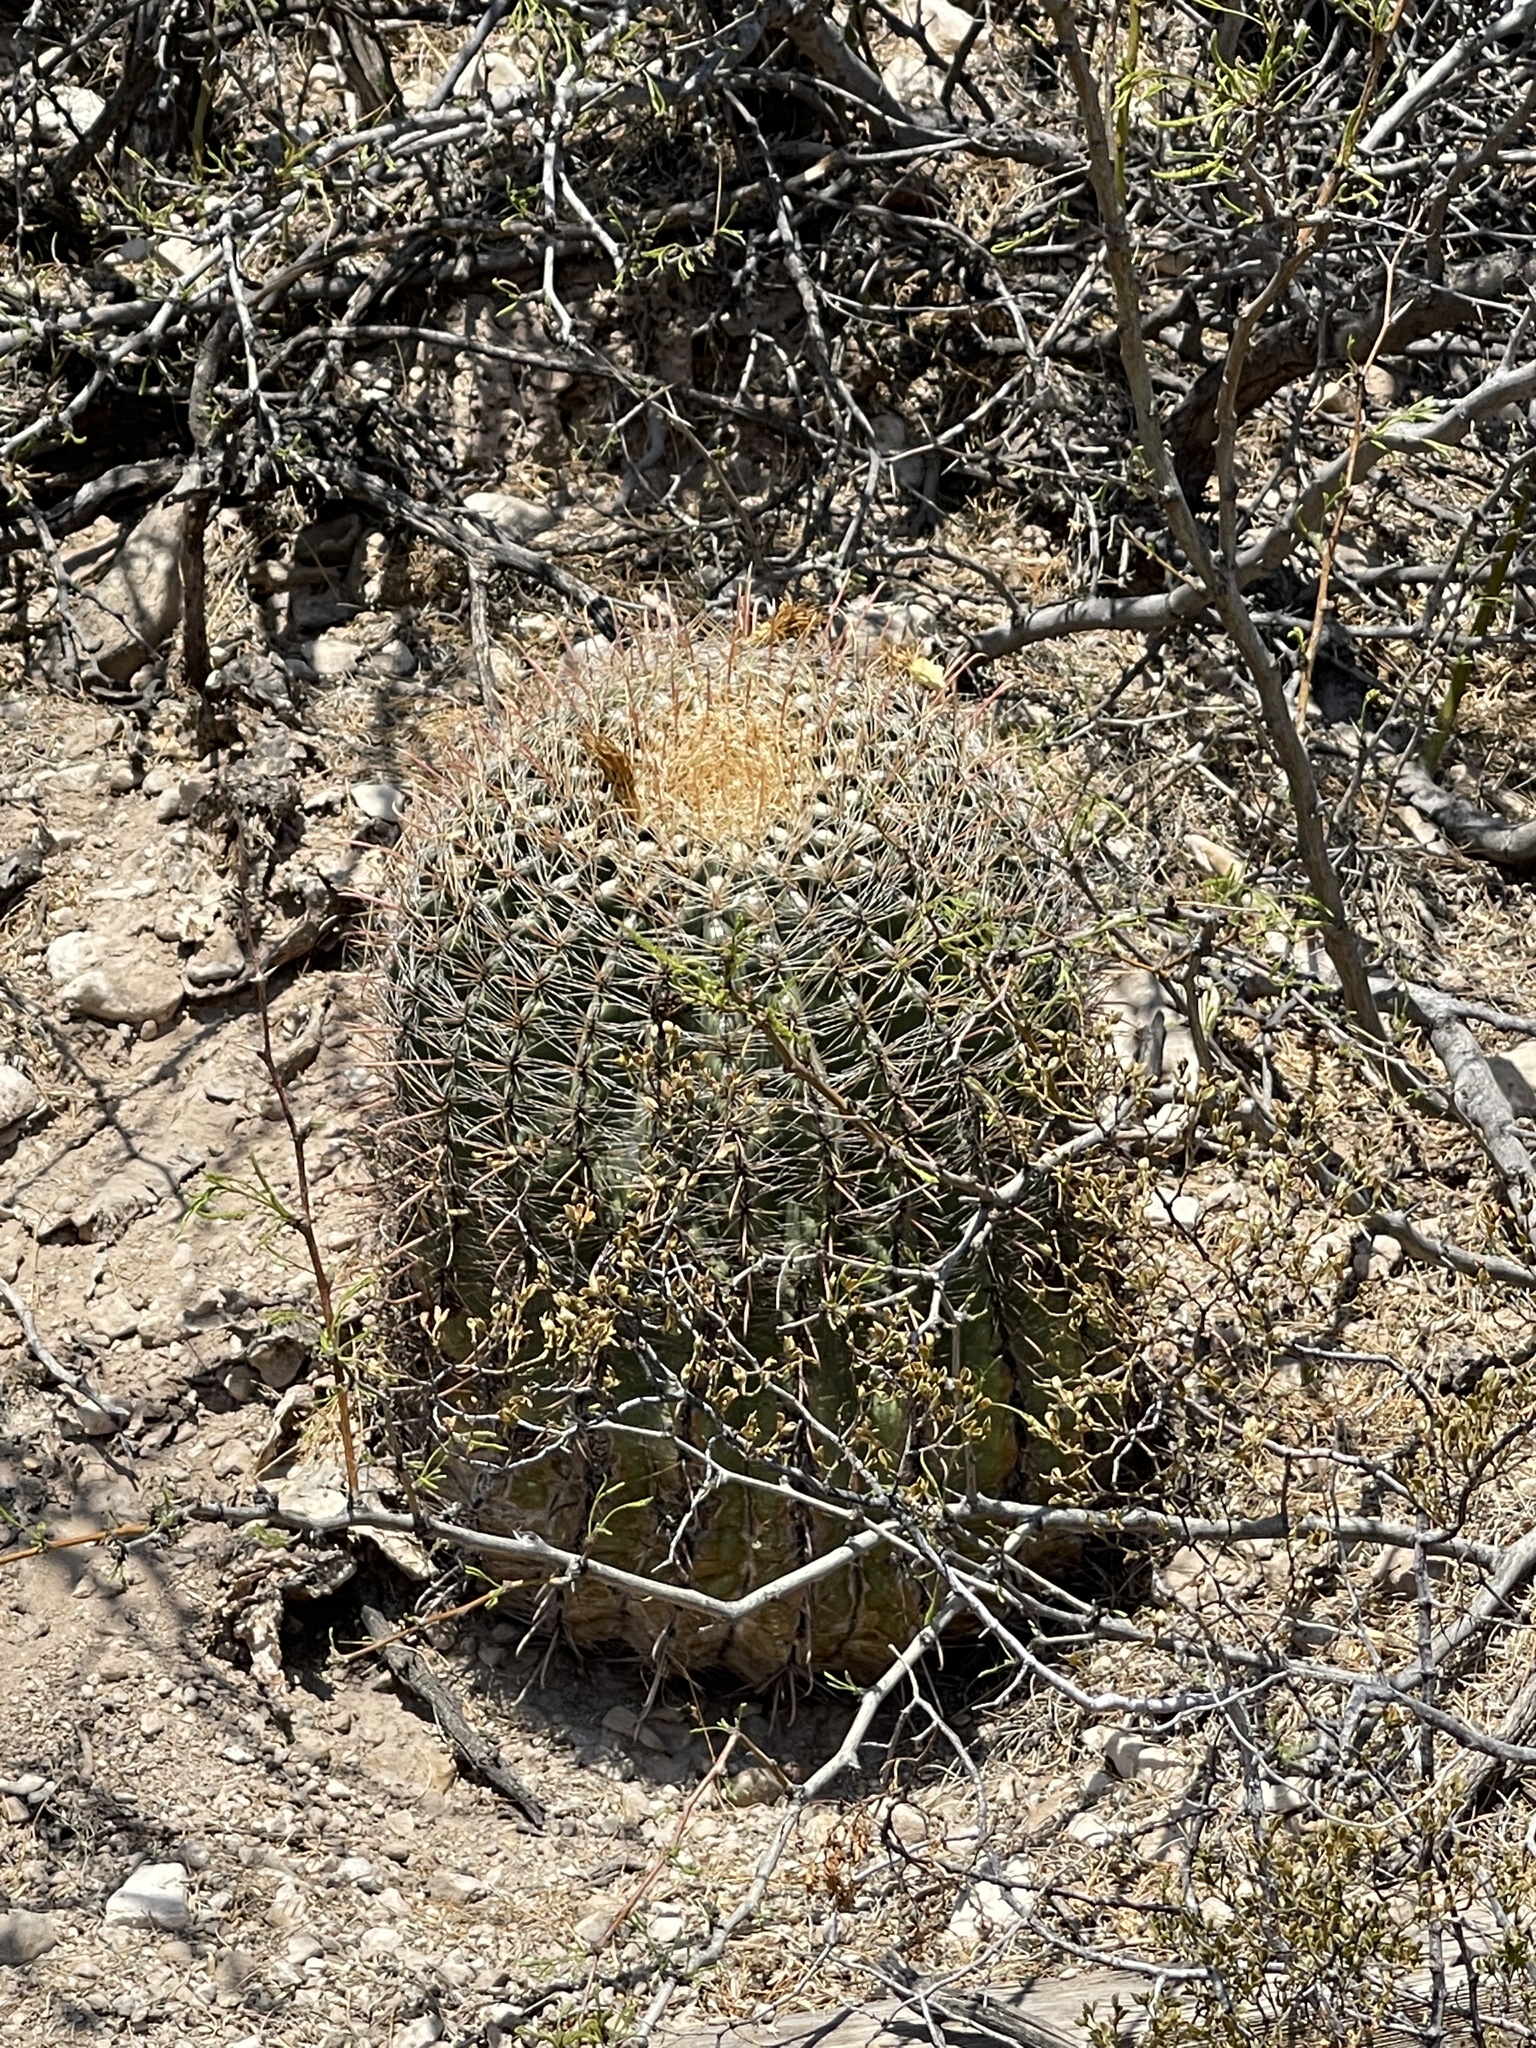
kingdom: Plantae
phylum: Tracheophyta
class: Magnoliopsida
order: Caryophyllales
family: Cactaceae
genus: Ferocactus
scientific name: Ferocactus wislizeni
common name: Candy barrel cactus
